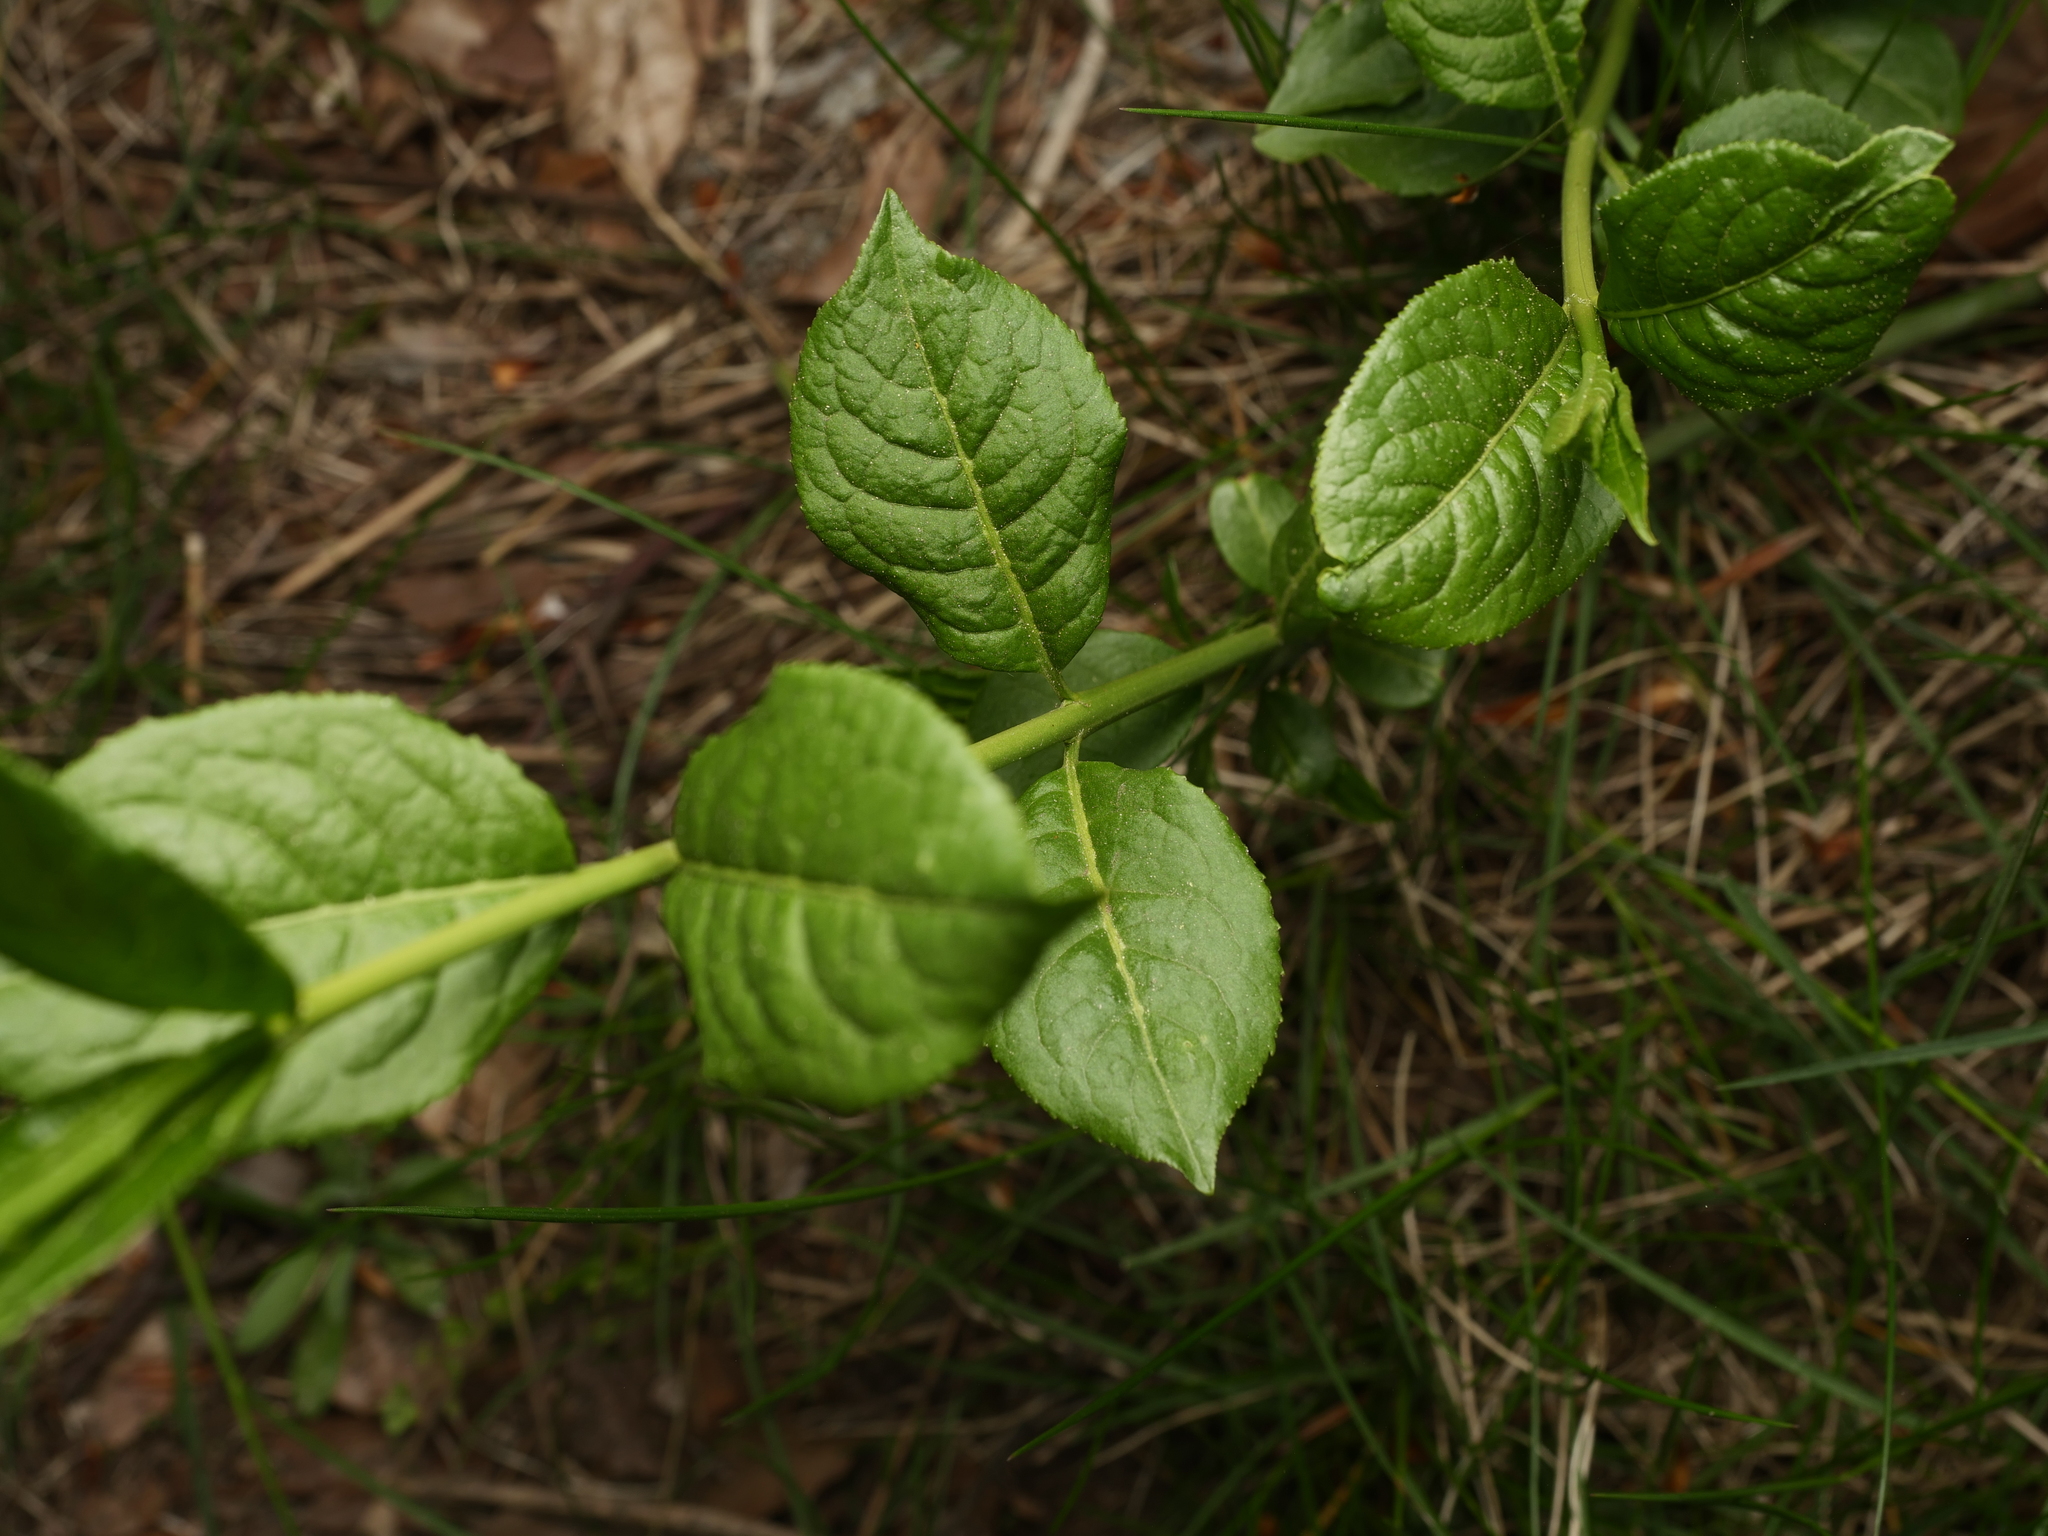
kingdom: Plantae
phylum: Tracheophyta
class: Magnoliopsida
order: Celastrales
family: Celastraceae
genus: Euonymus
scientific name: Euonymus europaeus
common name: Spindle
